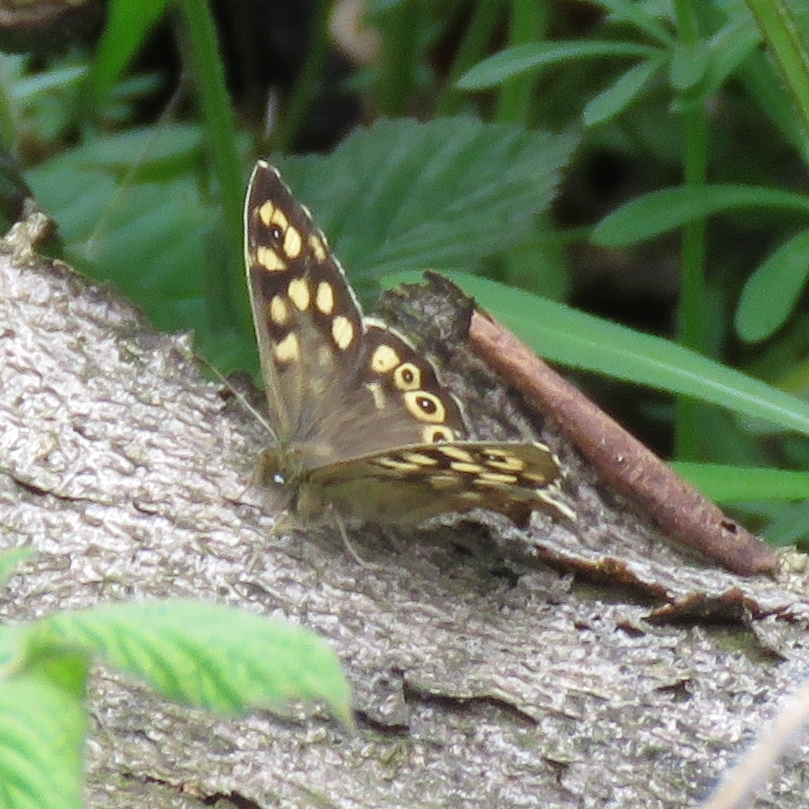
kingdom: Animalia
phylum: Arthropoda
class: Insecta
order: Lepidoptera
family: Nymphalidae
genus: Pararge
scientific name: Pararge aegeria
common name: Speckled wood
